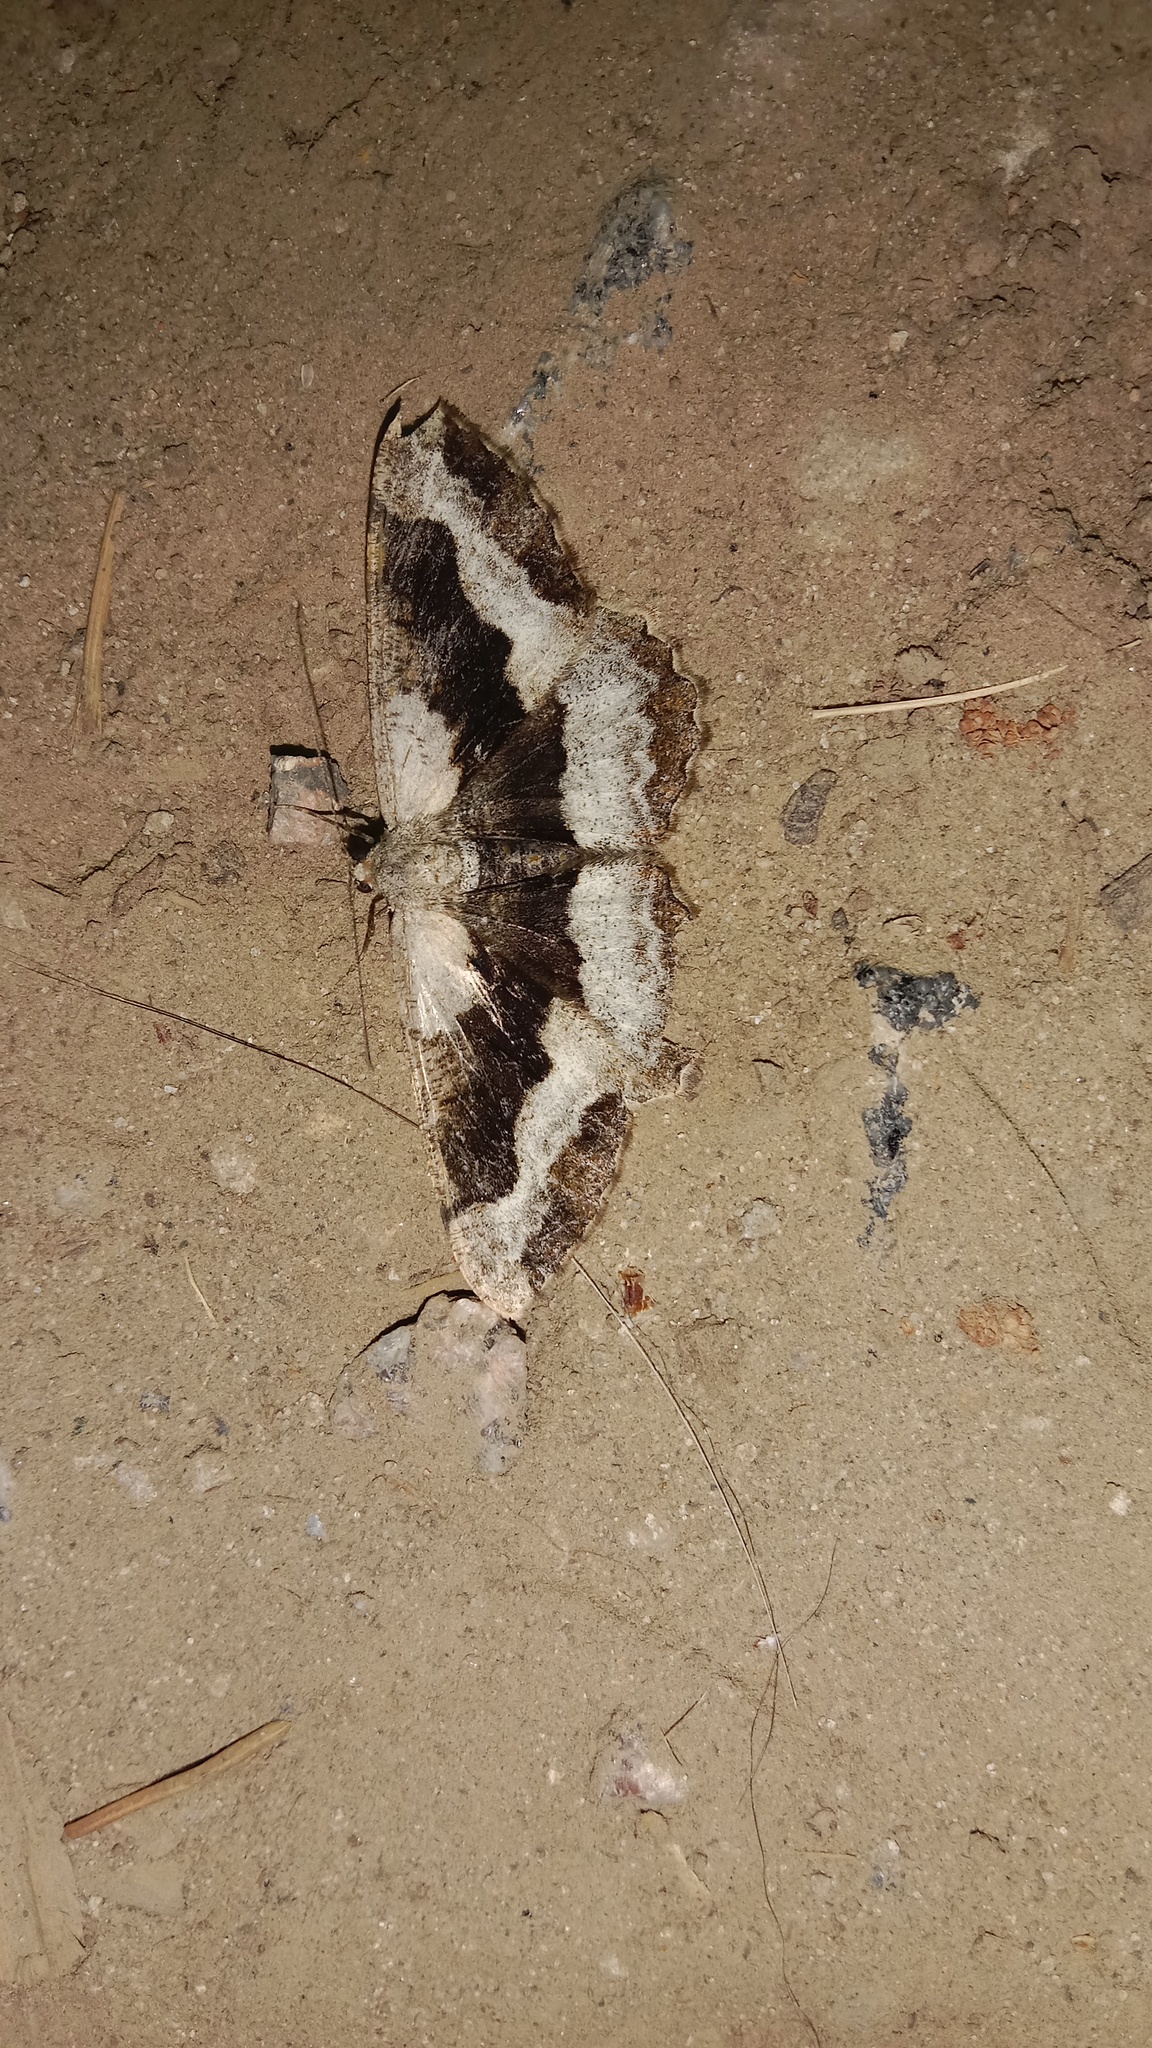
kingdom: Animalia
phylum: Arthropoda
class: Insecta
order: Lepidoptera
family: Geometridae
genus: Alcis
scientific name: Alcis repandata
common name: Mottled beauty
